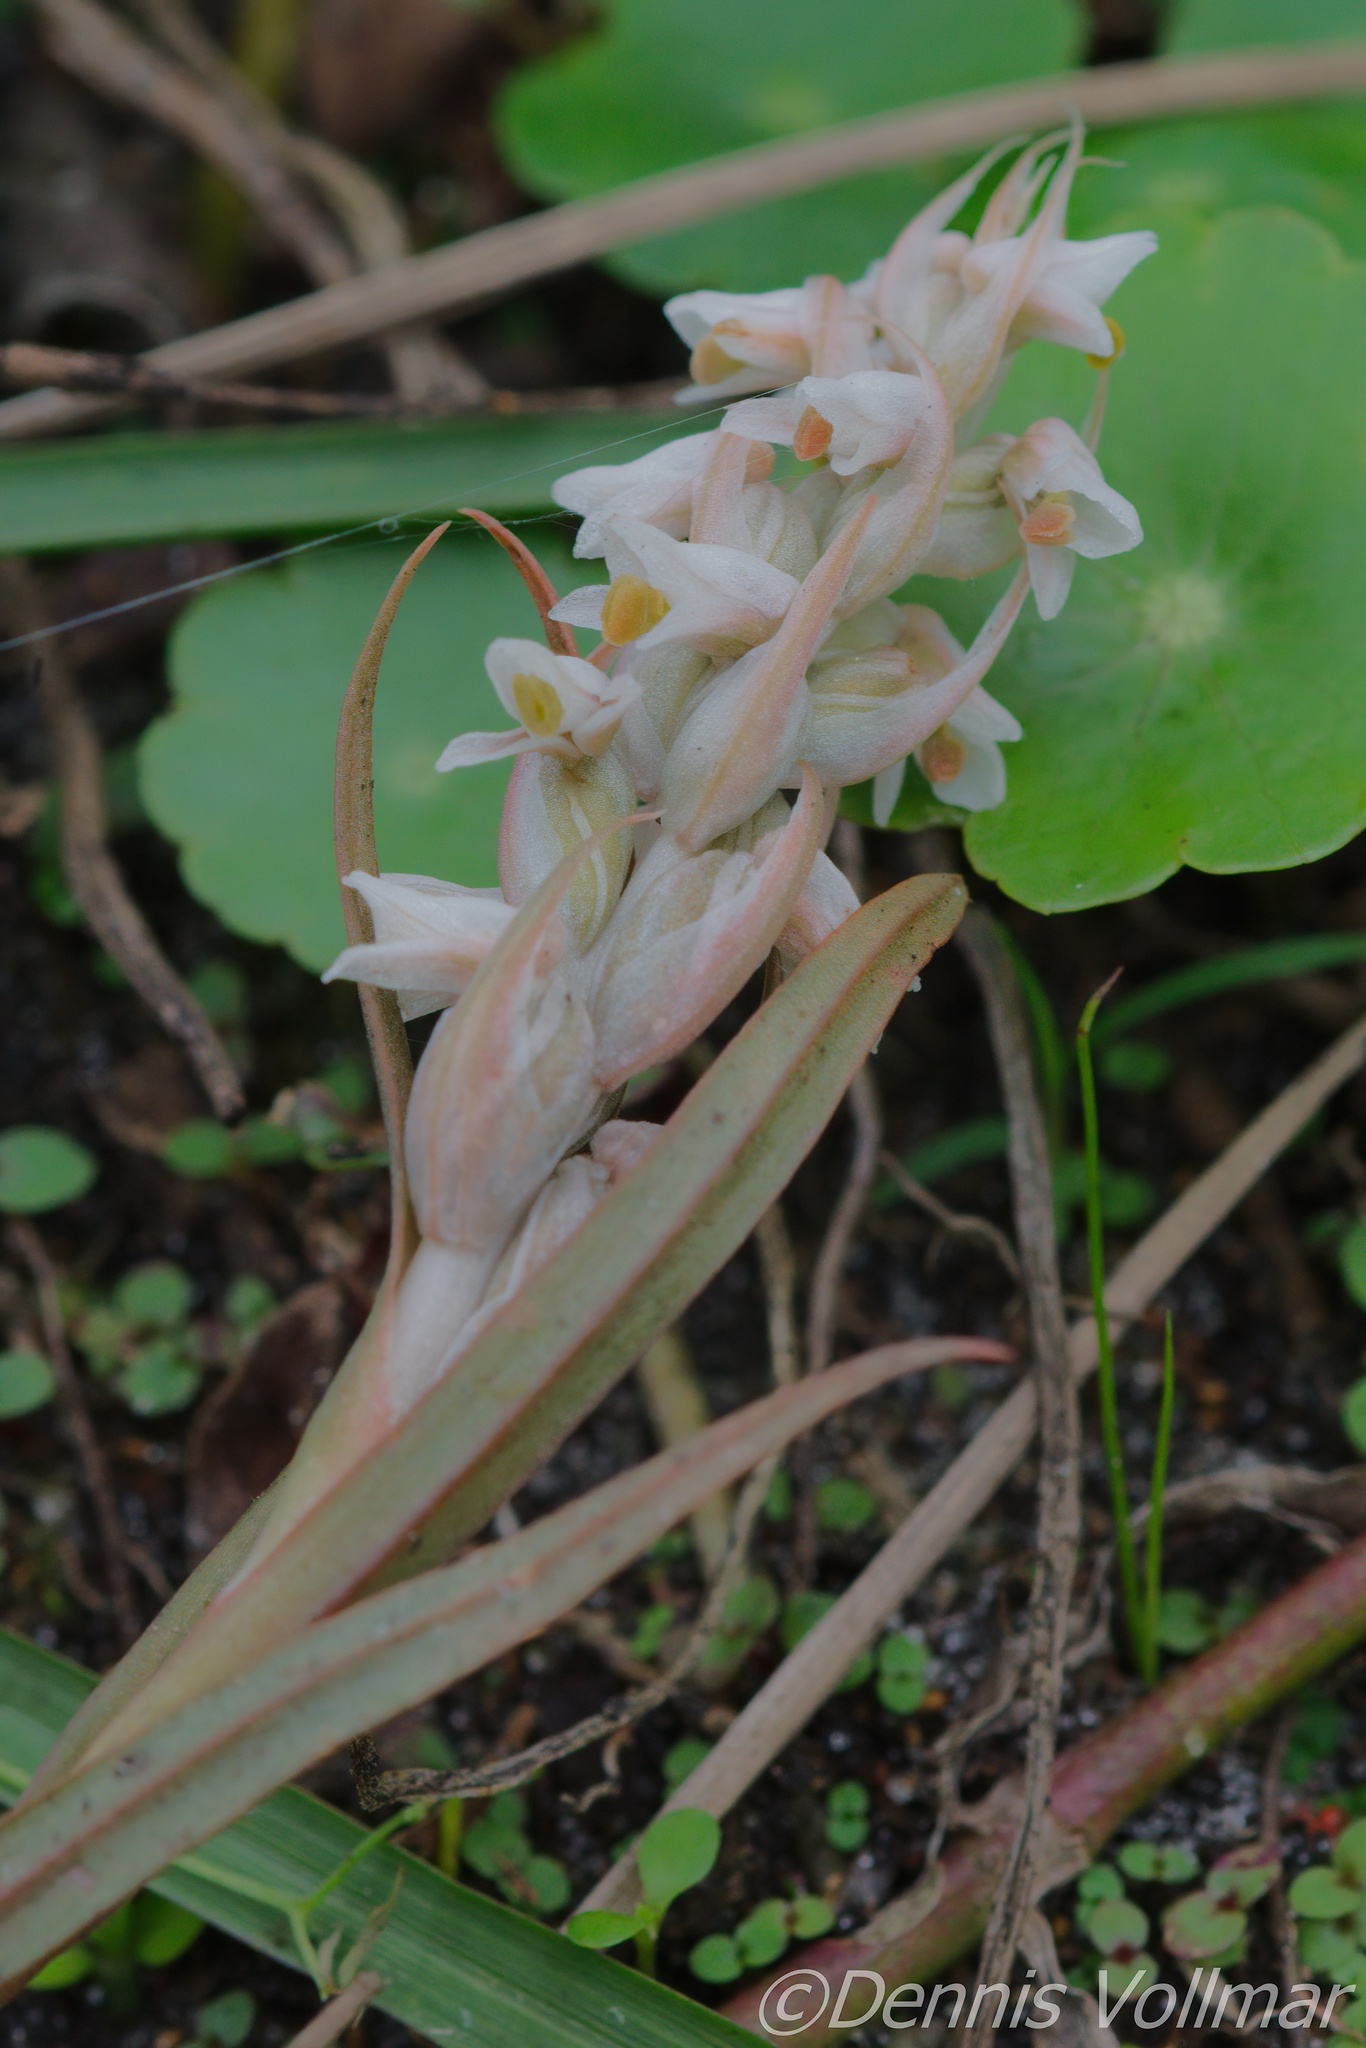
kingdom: Plantae
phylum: Tracheophyta
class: Liliopsida
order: Asparagales
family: Orchidaceae
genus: Zeuxine
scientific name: Zeuxine strateumatica
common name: Soldier's orchid
